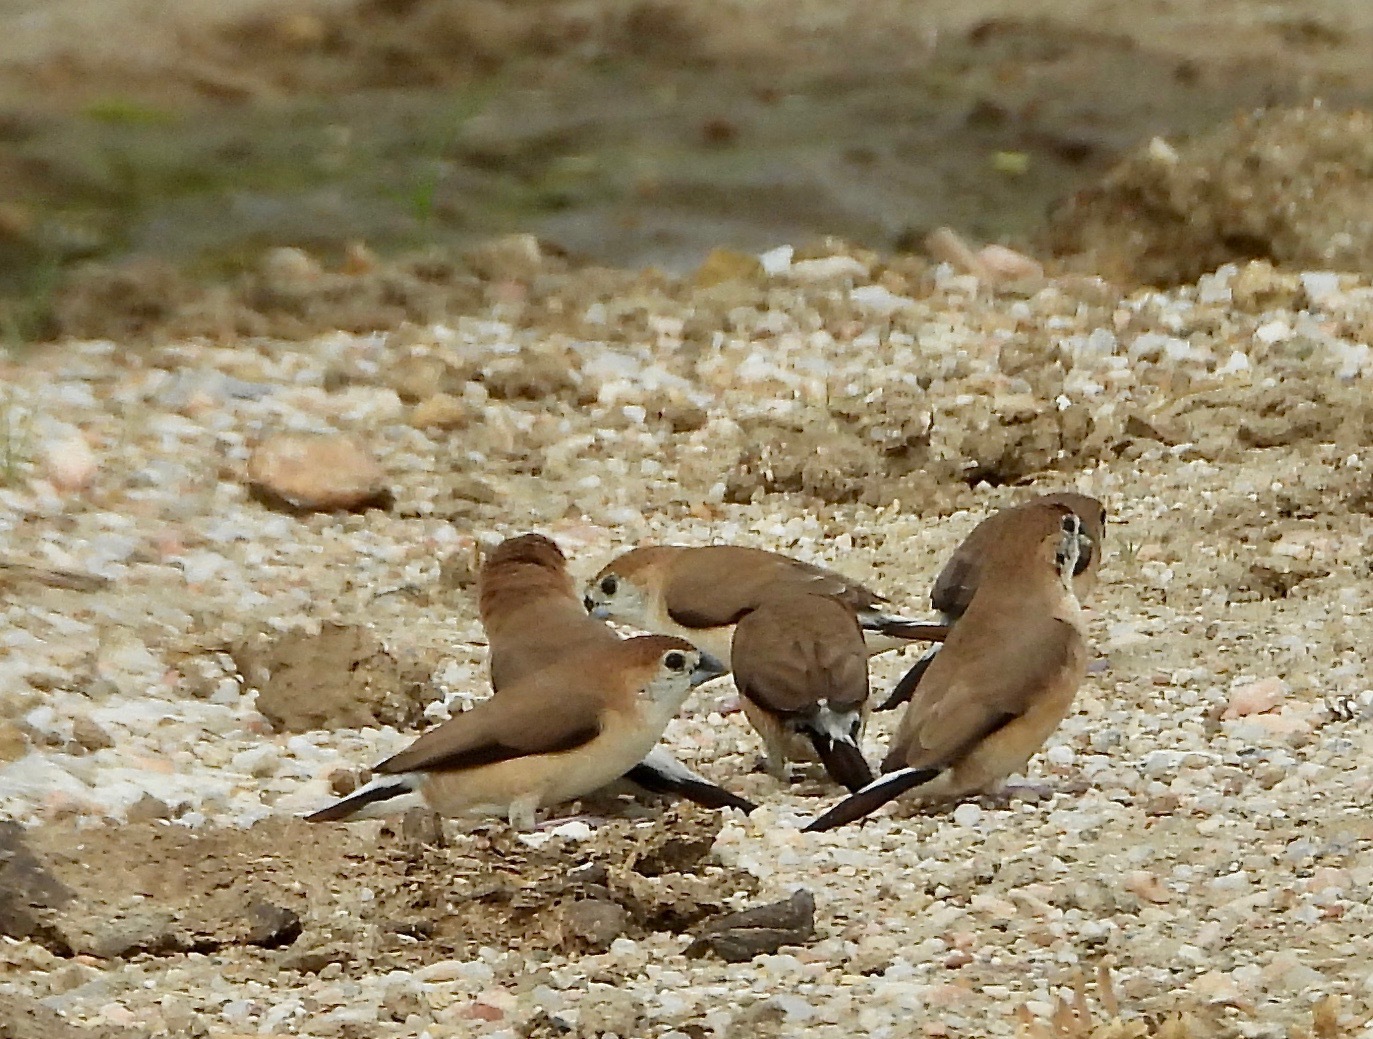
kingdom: Animalia
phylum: Chordata
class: Aves
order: Passeriformes
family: Estrildidae
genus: Euodice
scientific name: Euodice malabarica
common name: Indian silverbill
